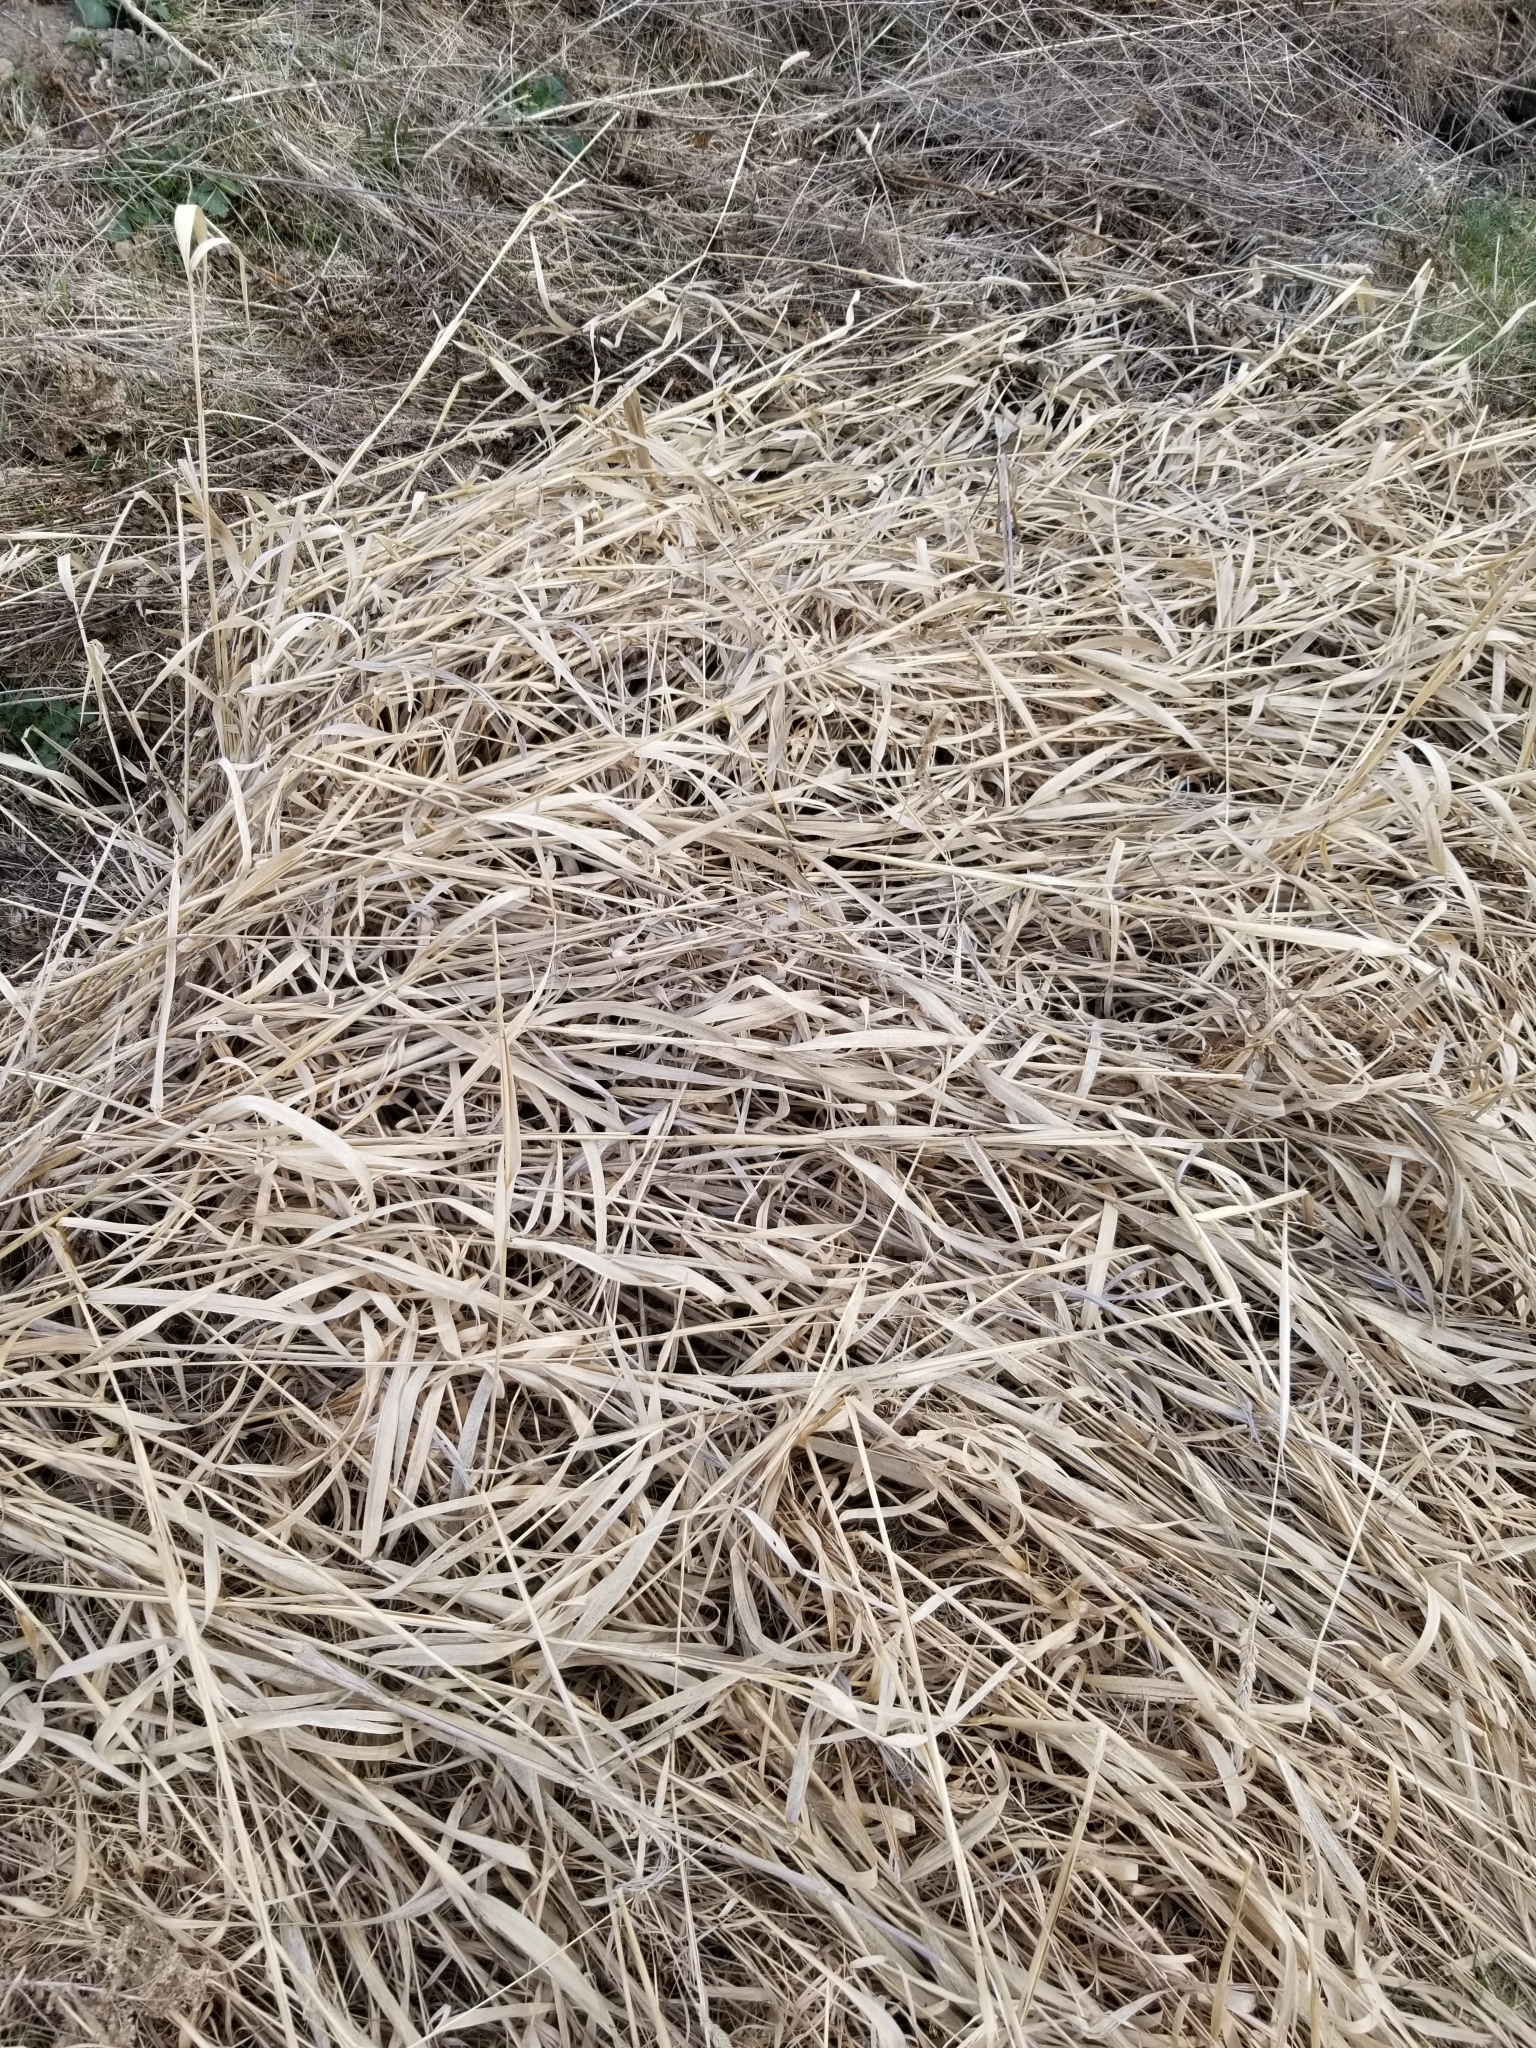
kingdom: Plantae
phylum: Tracheophyta
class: Liliopsida
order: Poales
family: Poaceae
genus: Phalaris
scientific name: Phalaris arundinacea
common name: Reed canary-grass
